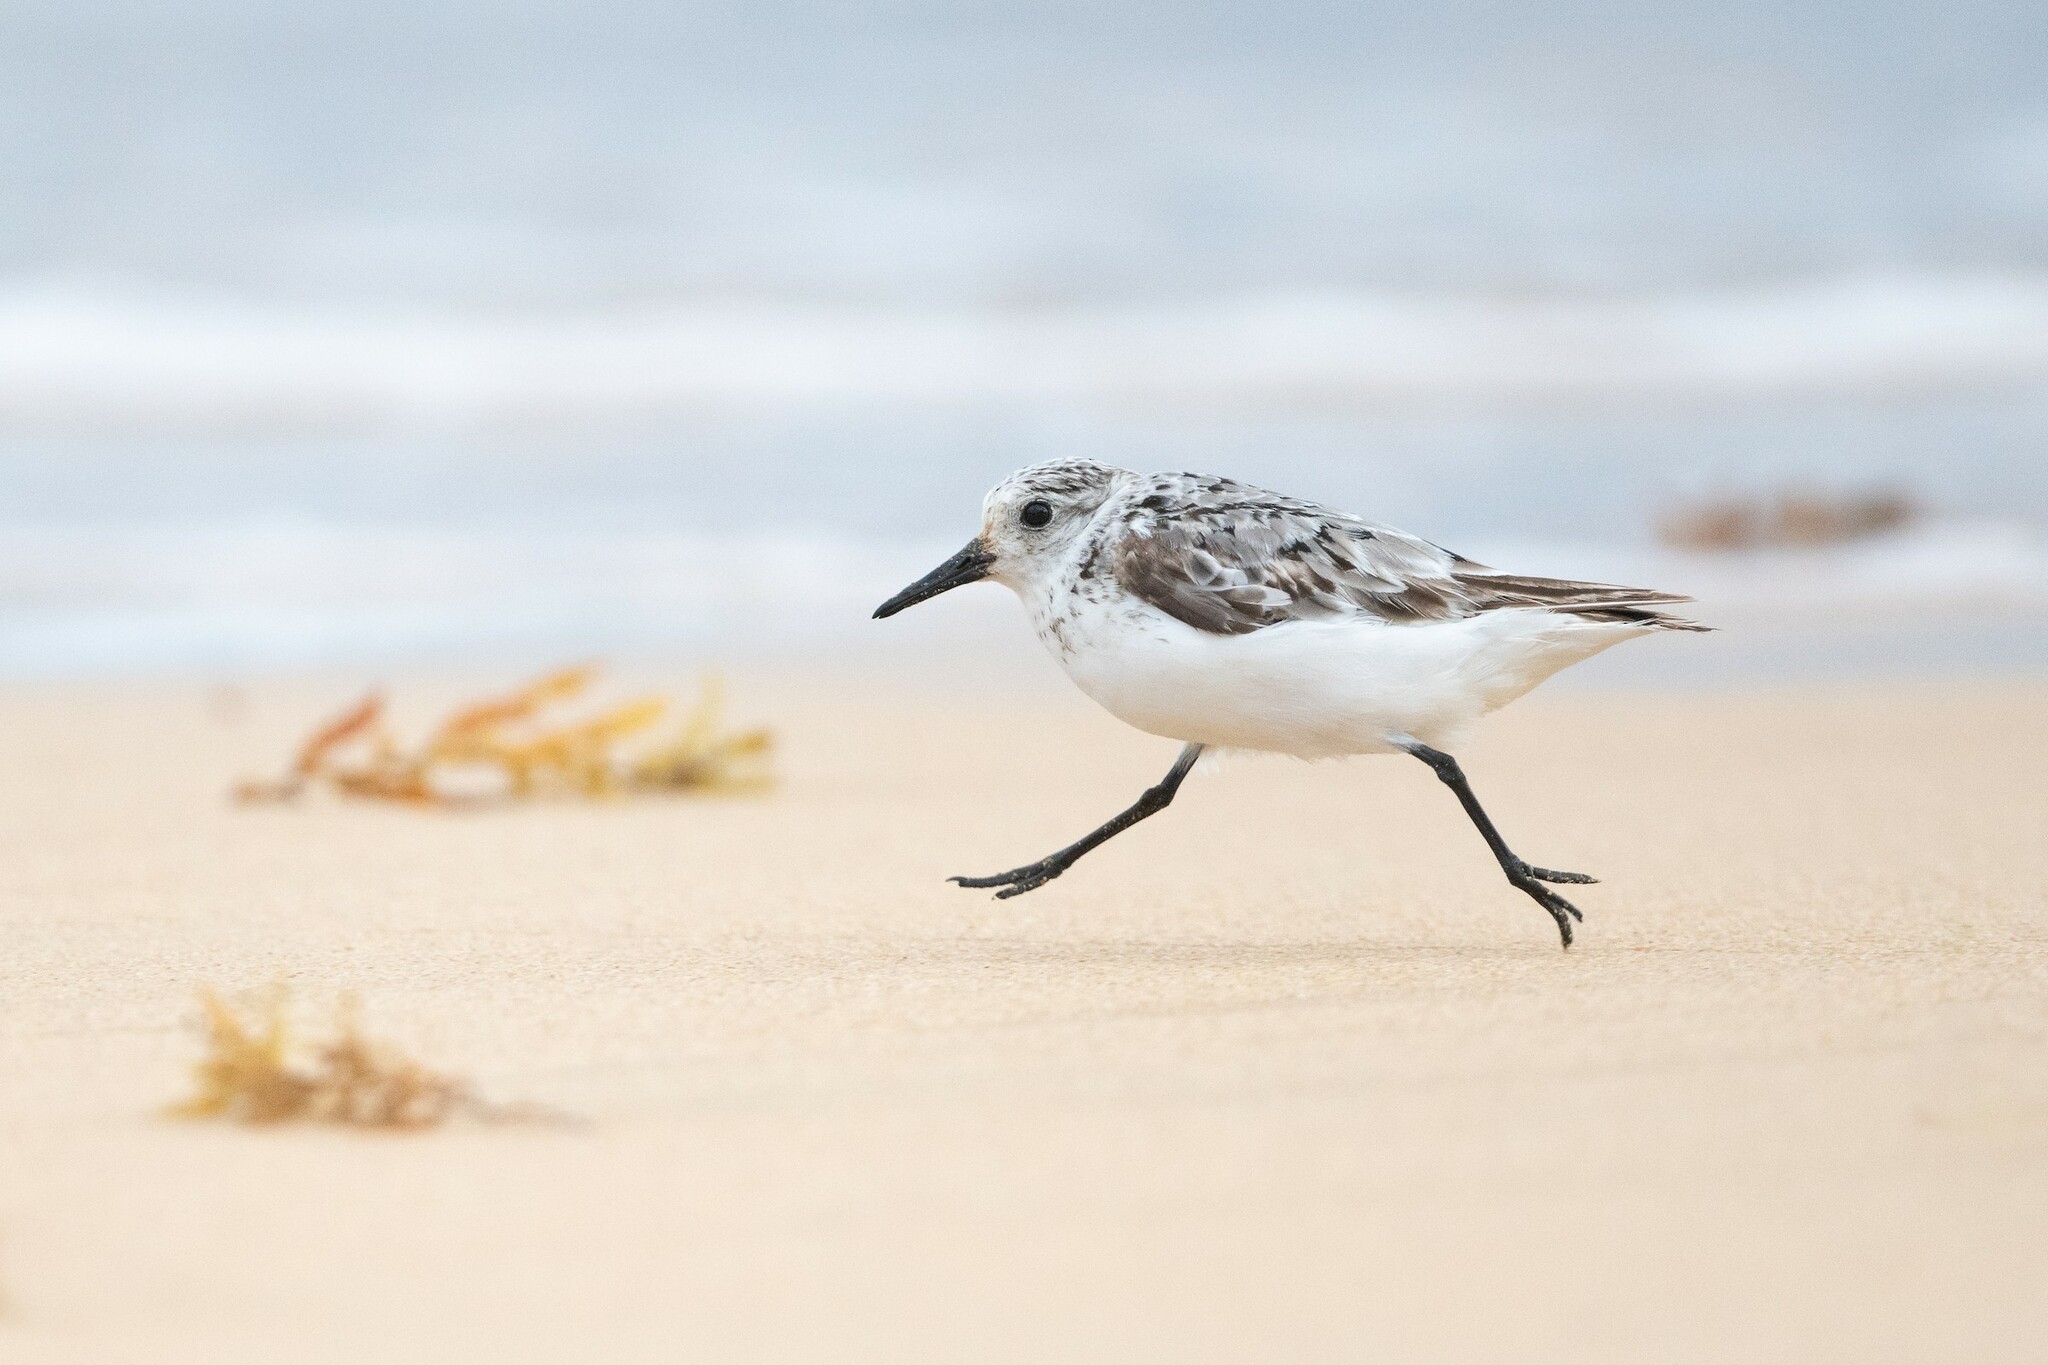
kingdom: Animalia
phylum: Chordata
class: Aves
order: Charadriiformes
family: Scolopacidae
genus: Calidris
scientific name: Calidris alba
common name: Sanderling
